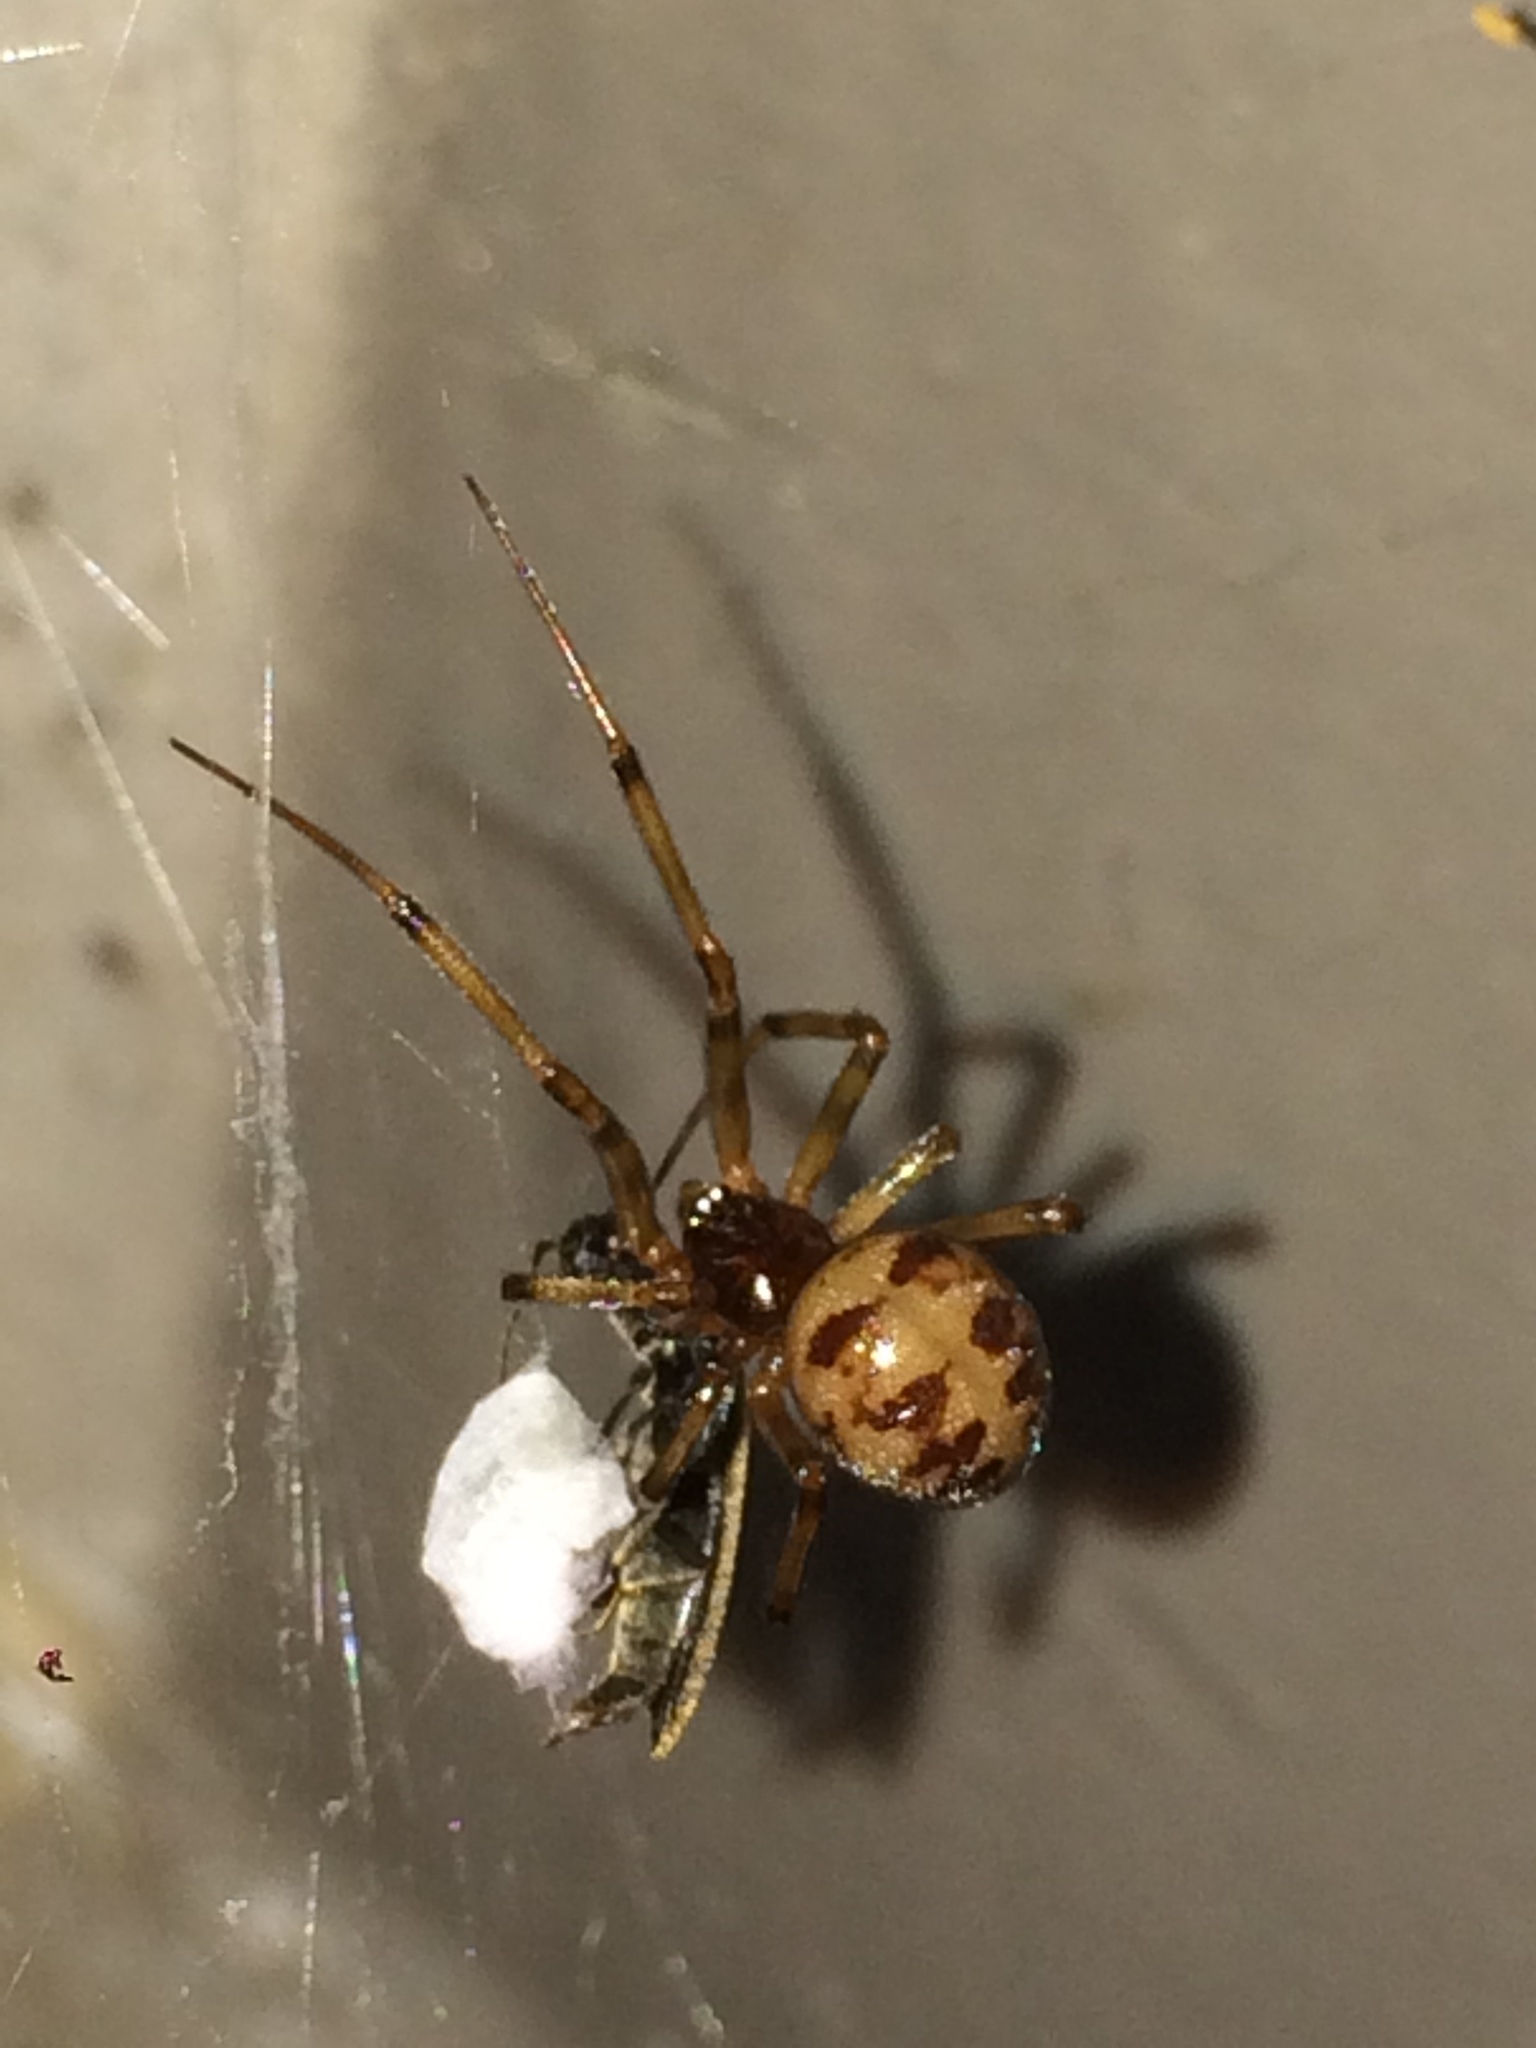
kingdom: Animalia
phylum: Arthropoda
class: Arachnida
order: Araneae
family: Theridiidae
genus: Steatoda
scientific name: Steatoda triangulosa
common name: Triangulate bud spider
